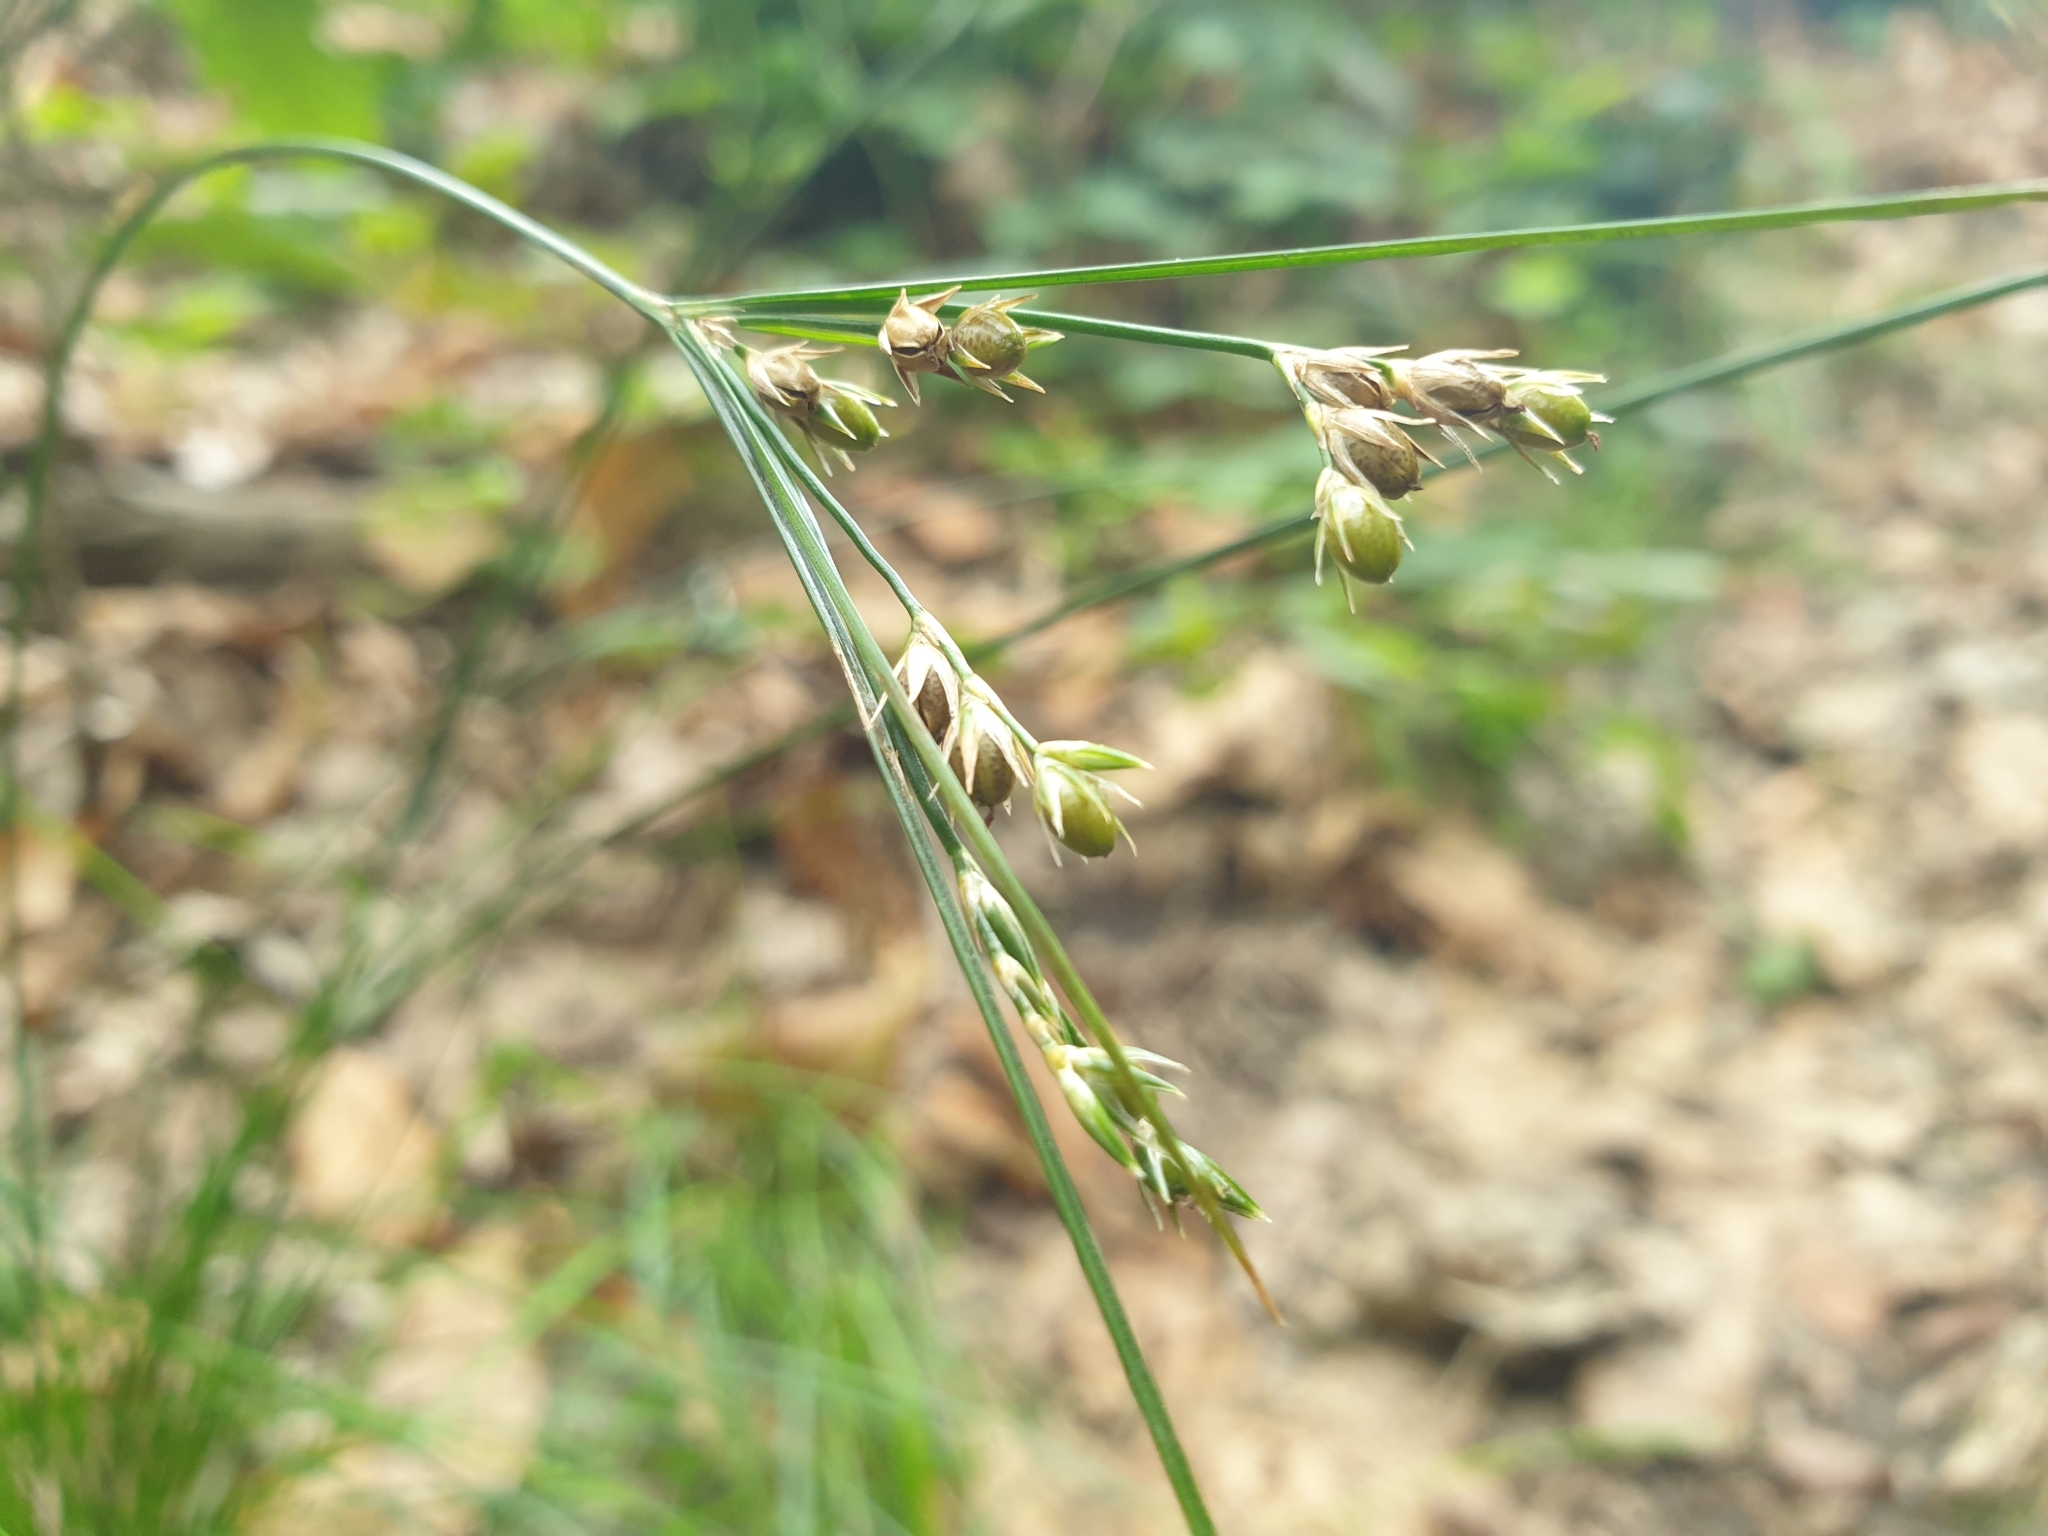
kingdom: Plantae
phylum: Tracheophyta
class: Liliopsida
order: Poales
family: Juncaceae
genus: Juncus
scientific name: Juncus tenuis
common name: Slender rush
